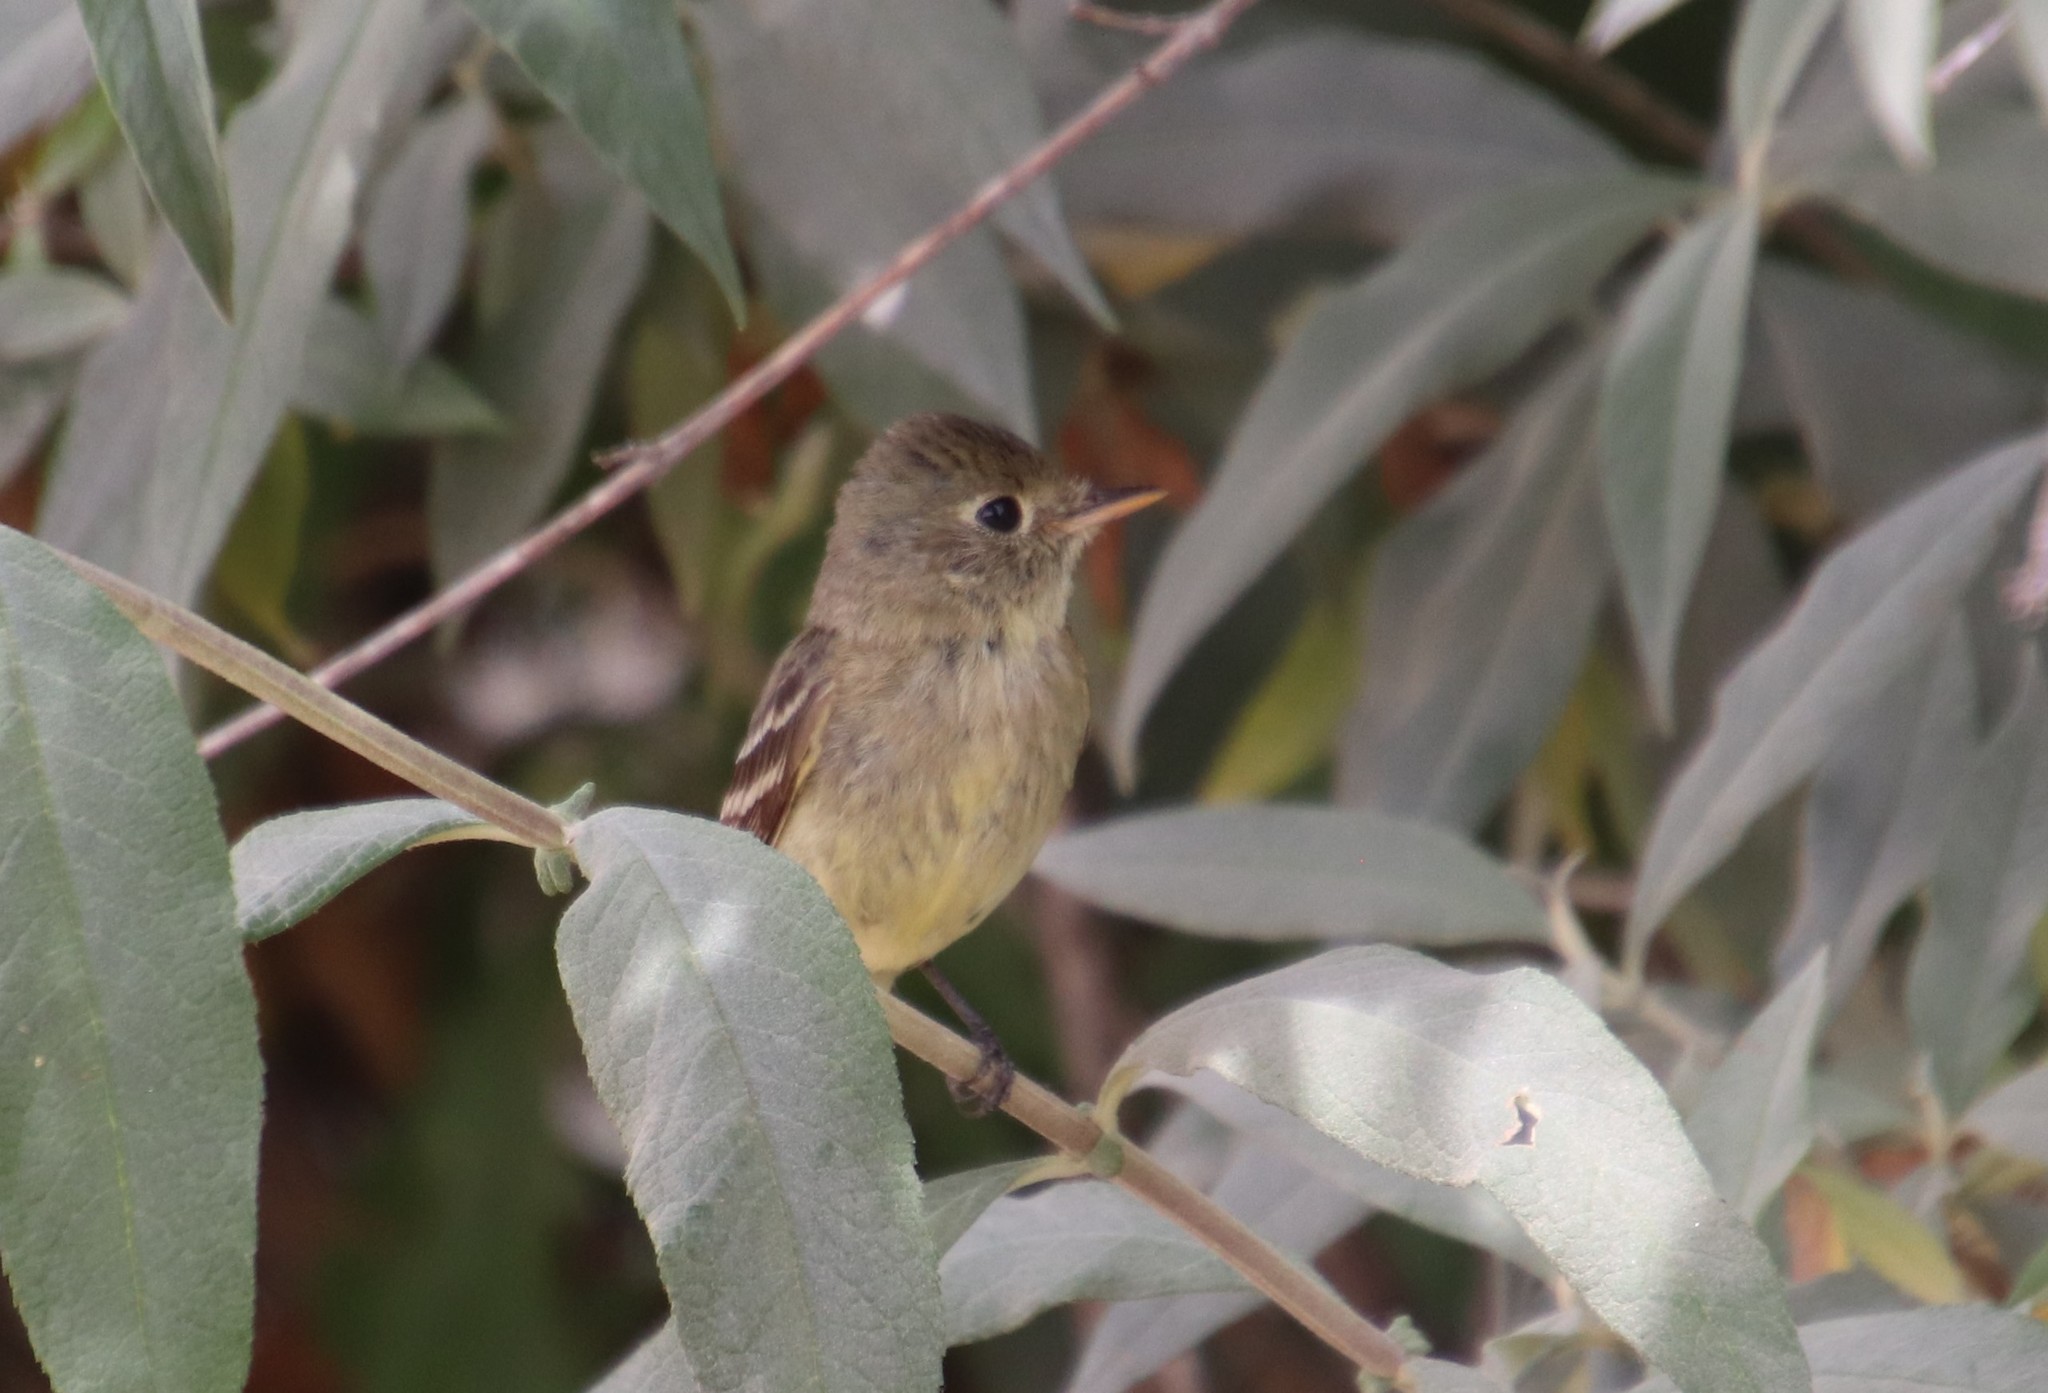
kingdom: Animalia
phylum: Chordata
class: Aves
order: Passeriformes
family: Tyrannidae
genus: Empidonax
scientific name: Empidonax difficilis
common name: Pacific-slope flycatcher
